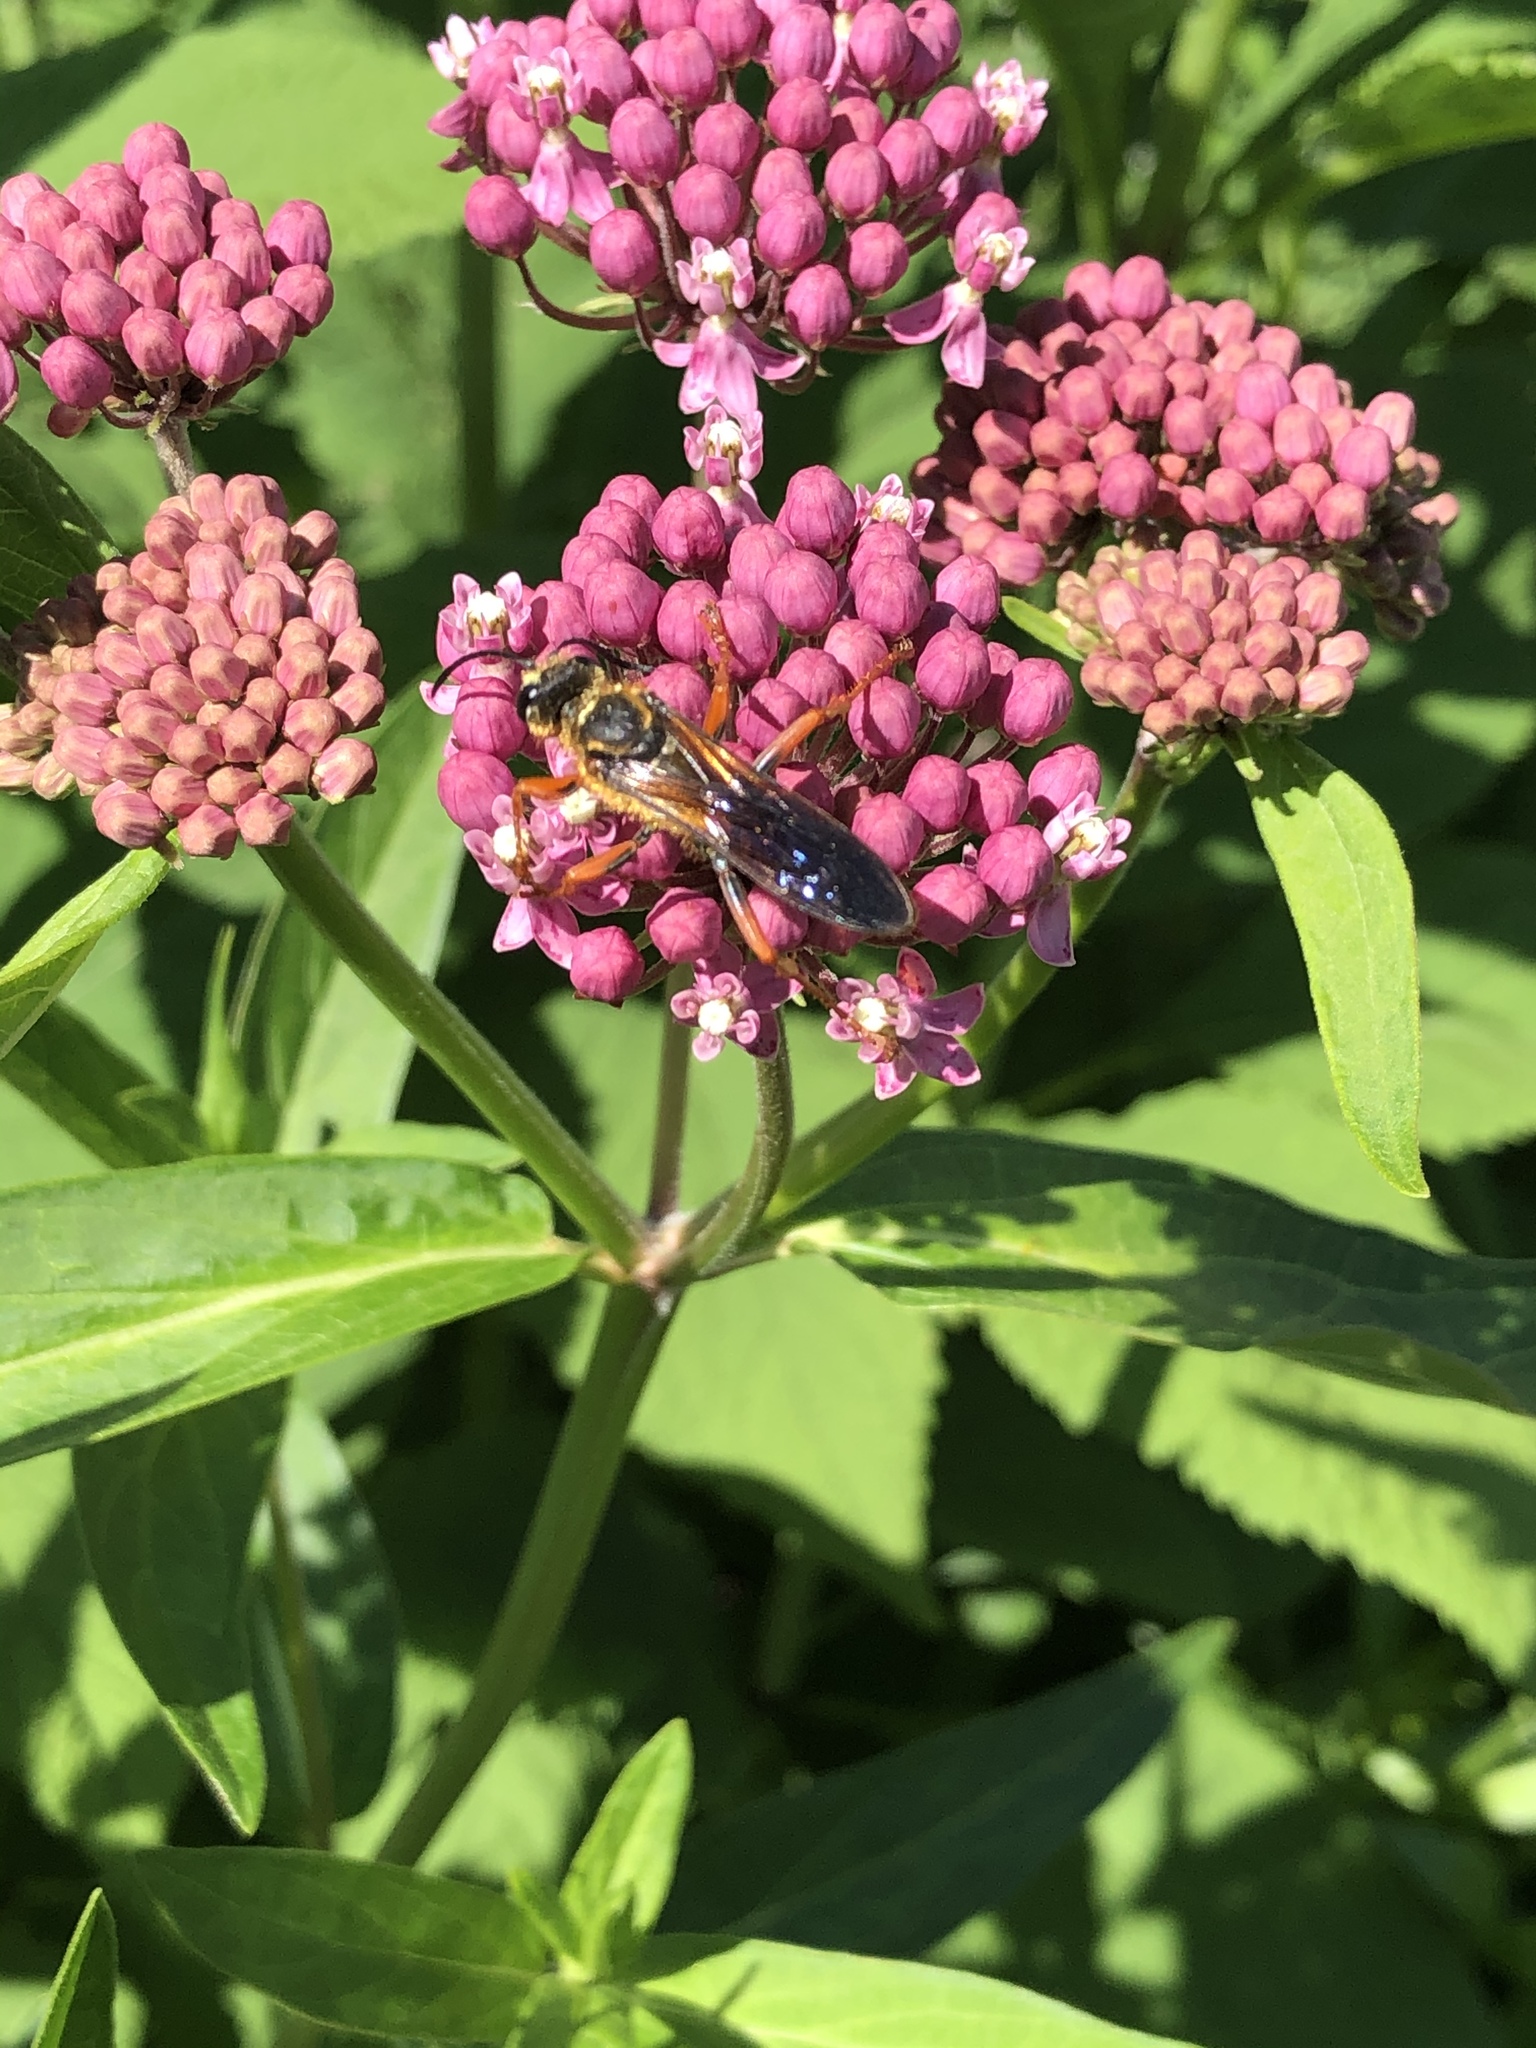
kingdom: Animalia
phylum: Arthropoda
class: Insecta
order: Hymenoptera
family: Sphecidae
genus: Sphex
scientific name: Sphex ichneumoneus
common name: Great golden digger wasp
